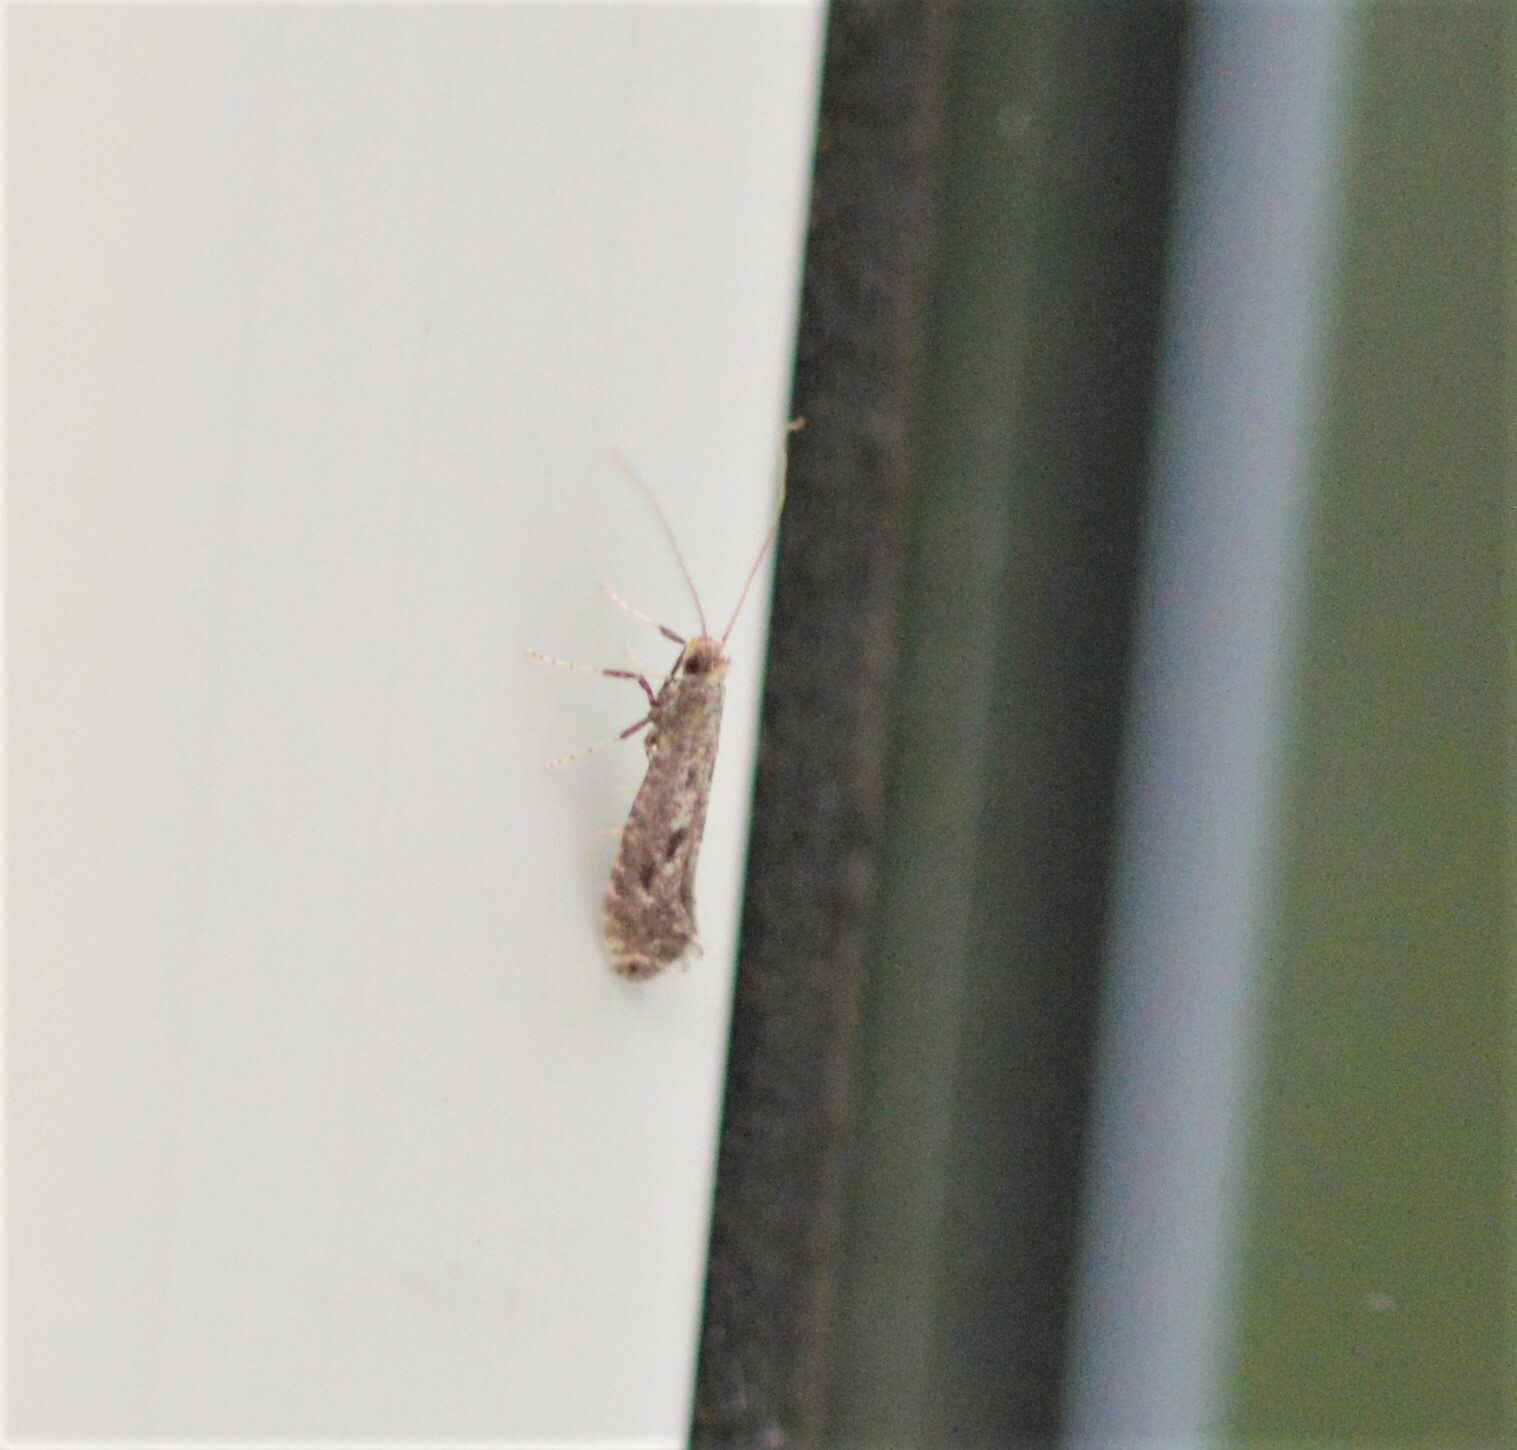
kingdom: Animalia
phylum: Arthropoda
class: Insecta
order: Lepidoptera
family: Gracillariidae
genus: Parornix
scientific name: Parornix devoniella
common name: Hazel slender
